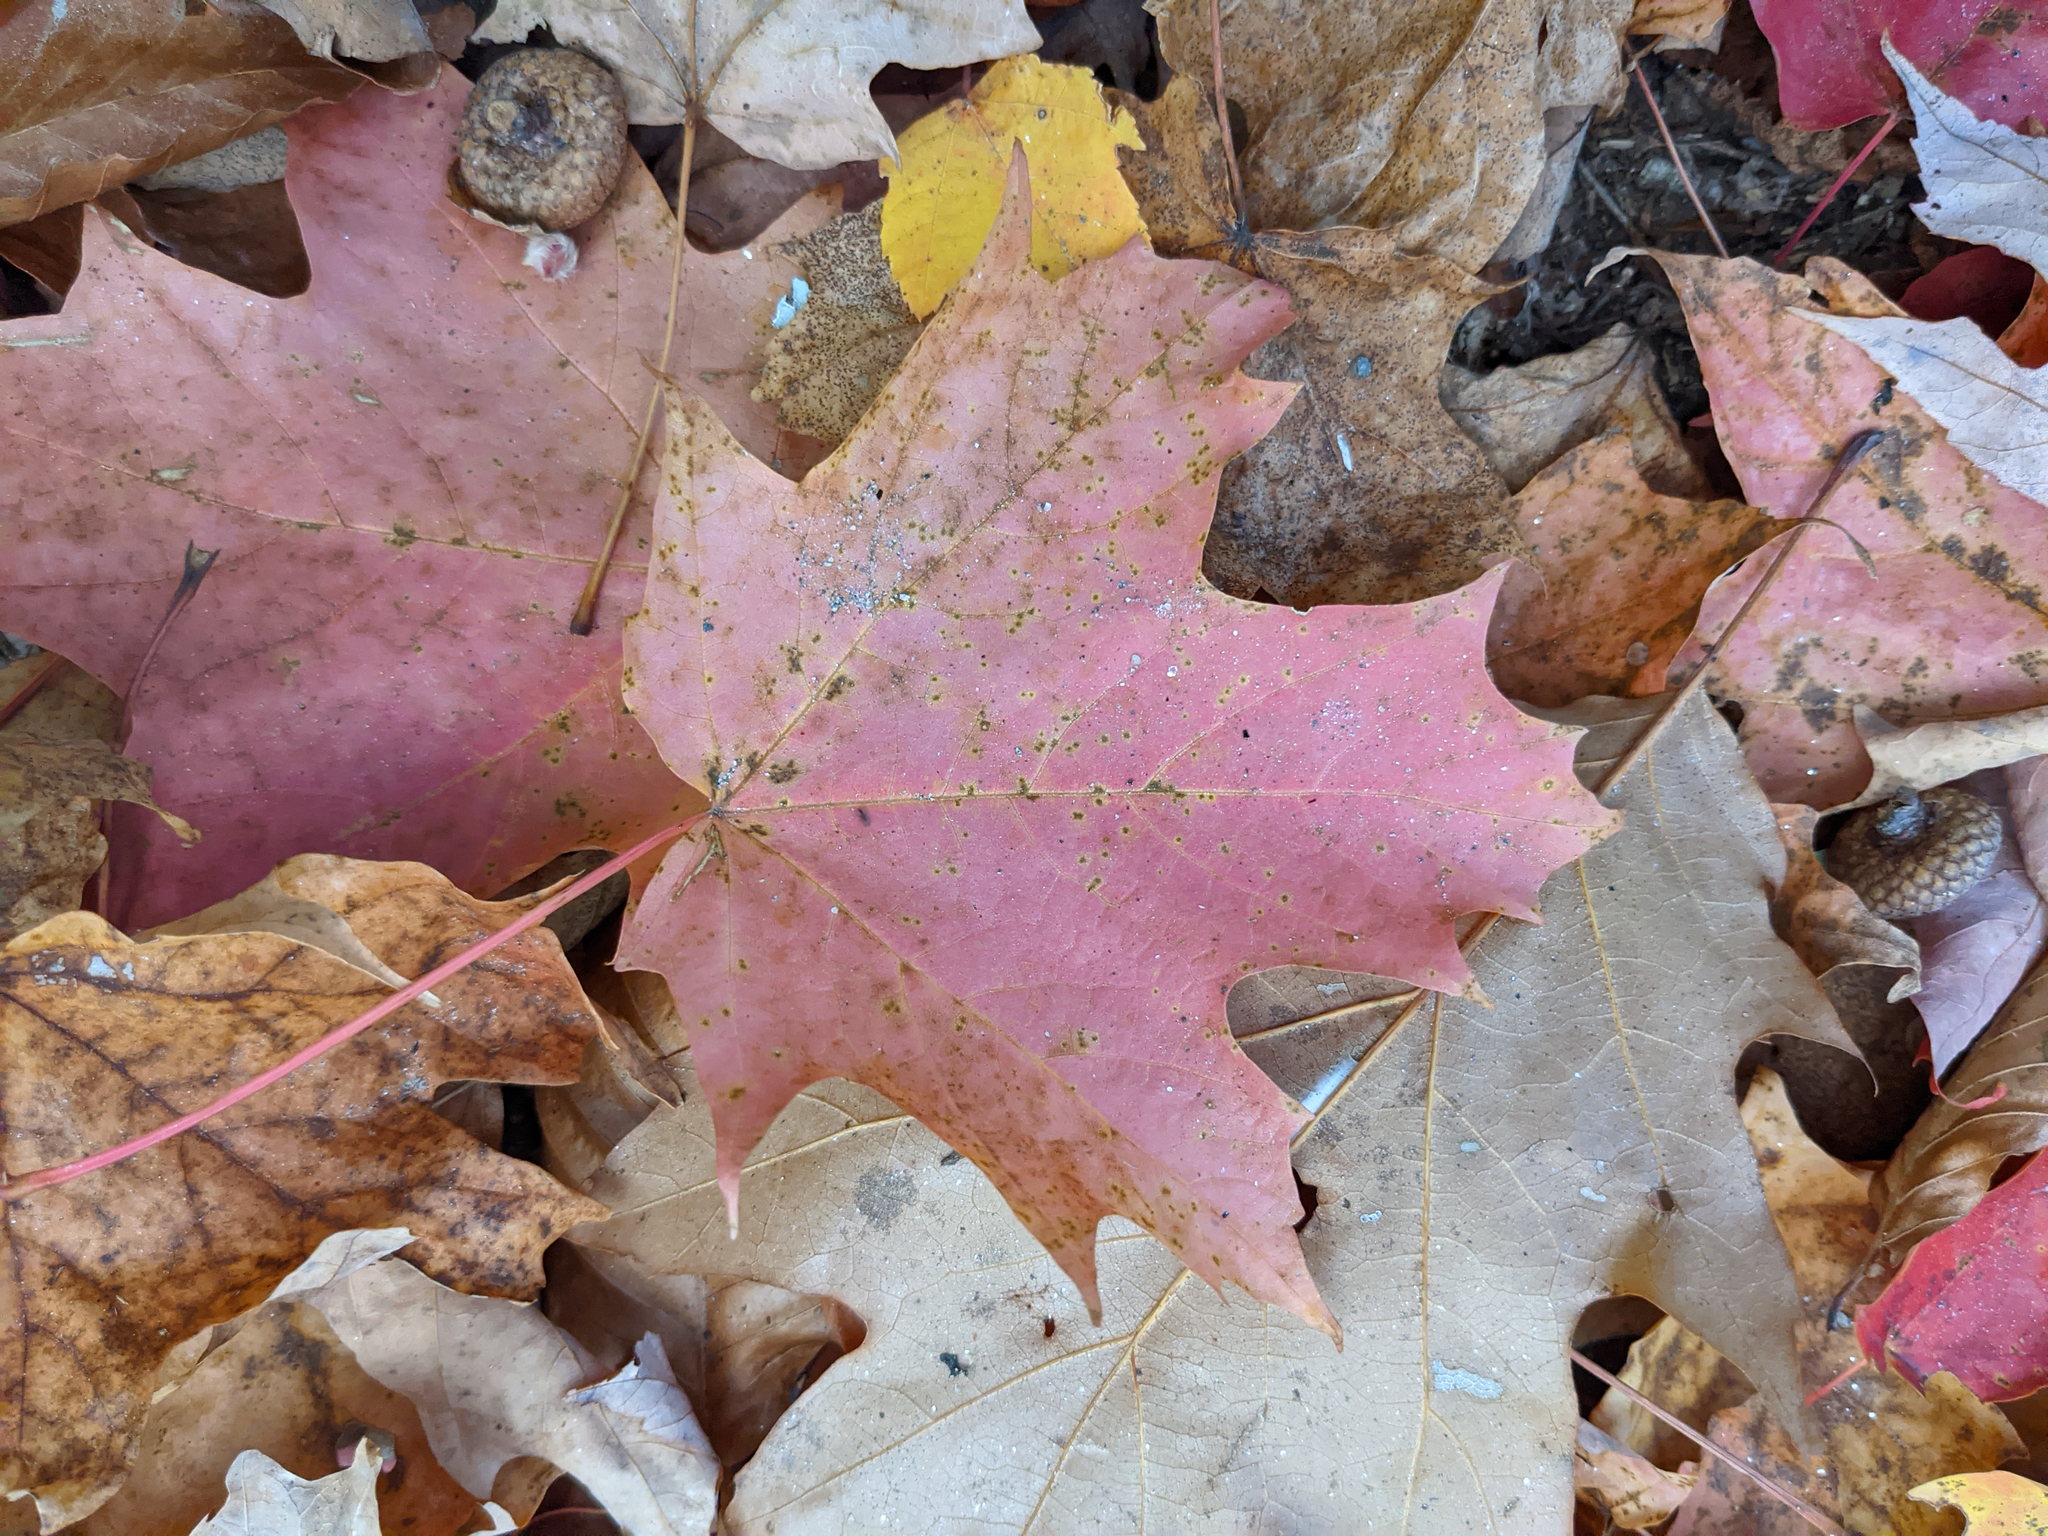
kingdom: Plantae
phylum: Tracheophyta
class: Magnoliopsida
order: Sapindales
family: Sapindaceae
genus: Acer
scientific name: Acer saccharum
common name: Sugar maple
